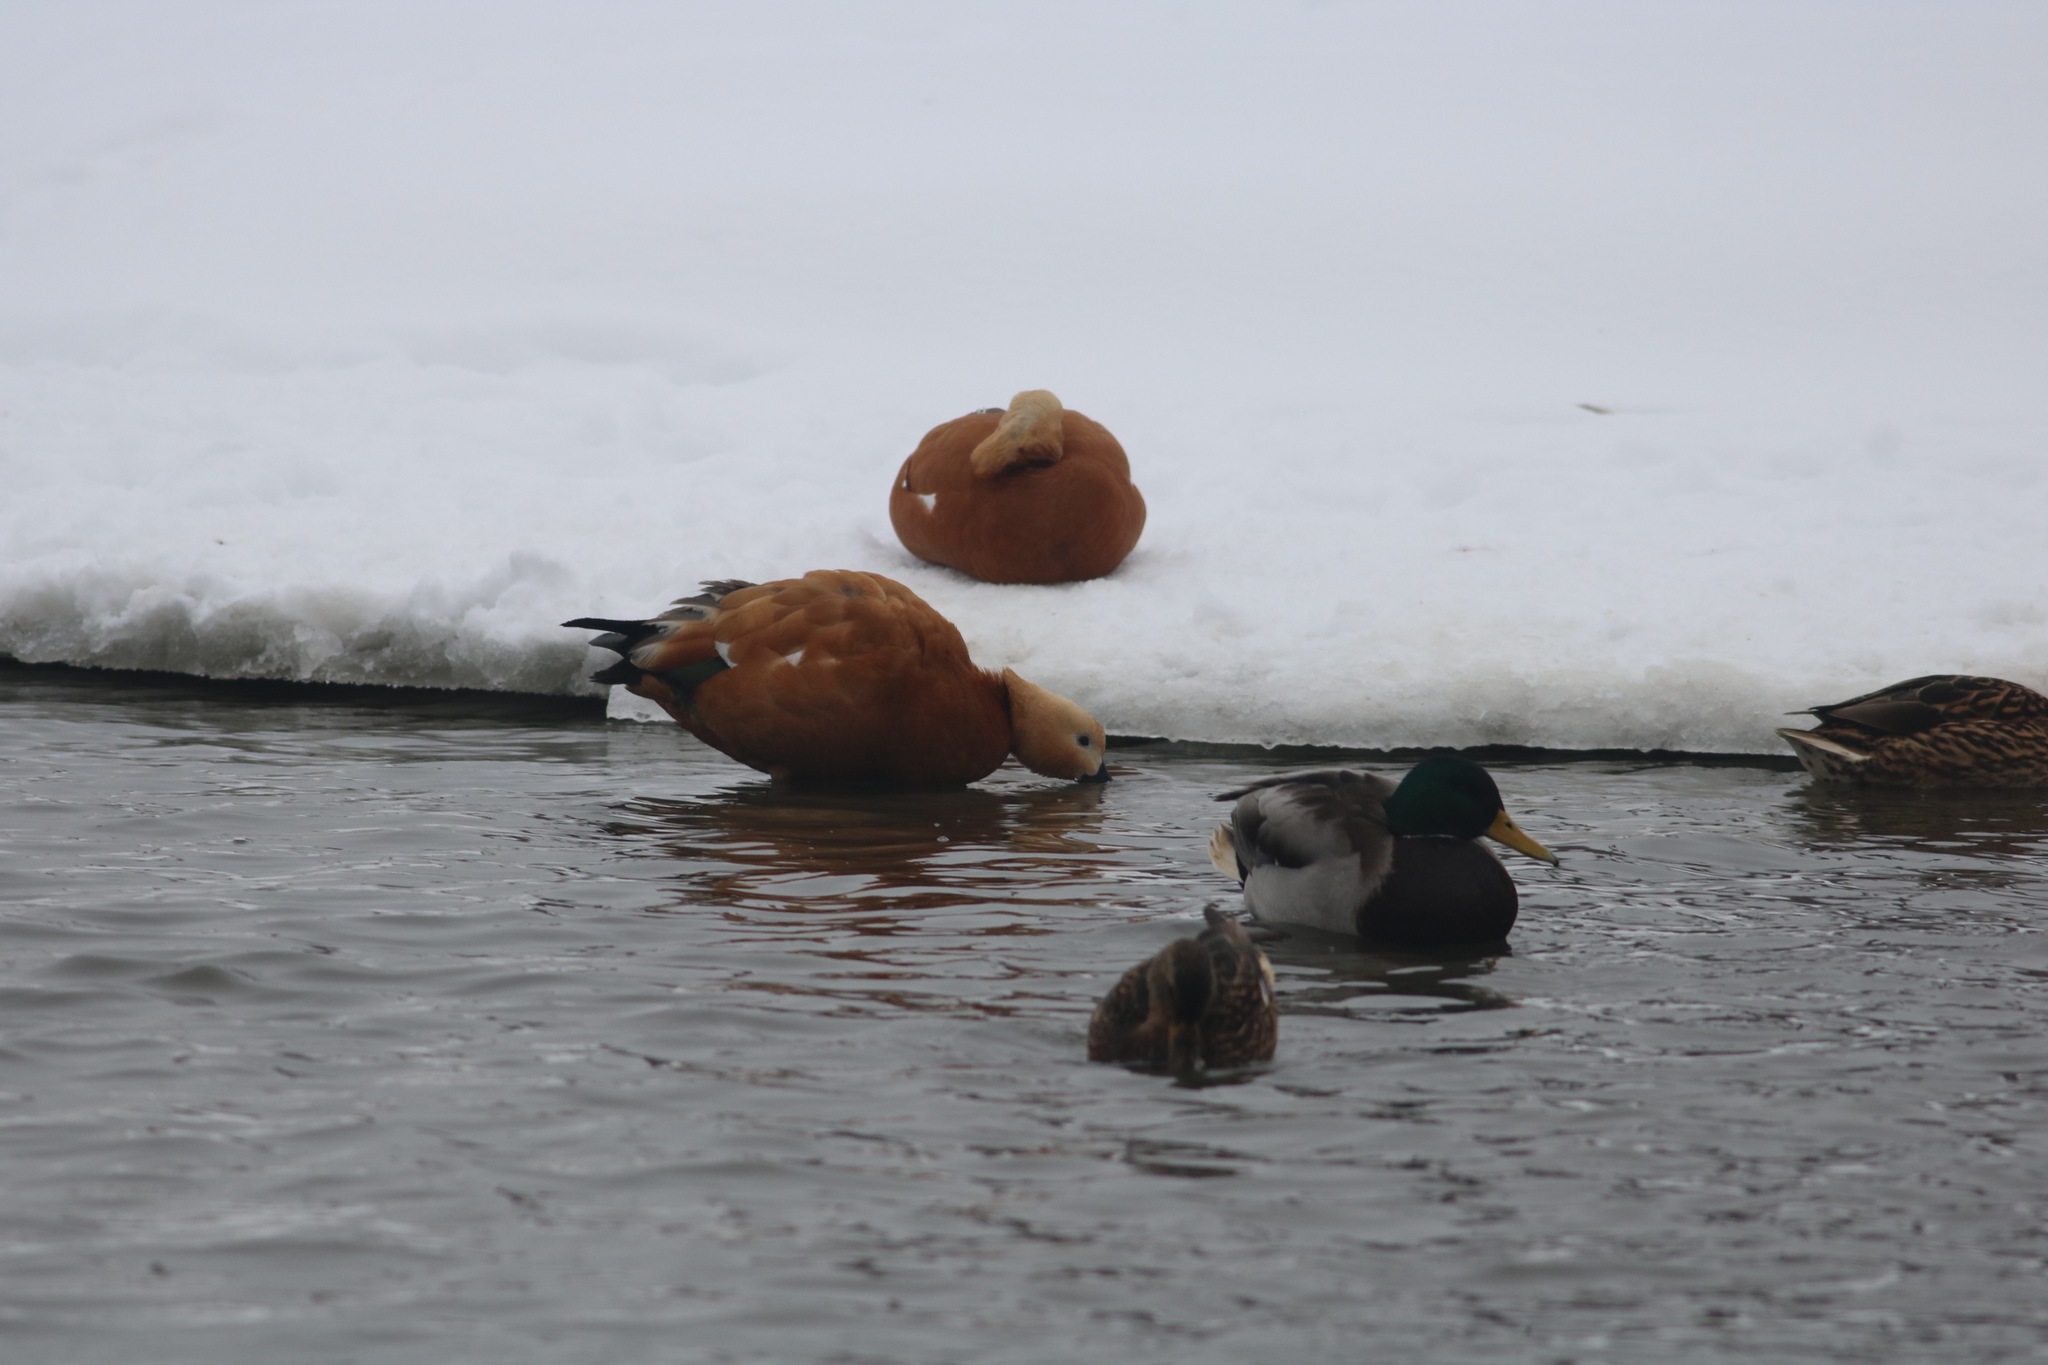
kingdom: Animalia
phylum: Chordata
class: Aves
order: Anseriformes
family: Anatidae
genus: Tadorna
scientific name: Tadorna ferruginea
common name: Ruddy shelduck
